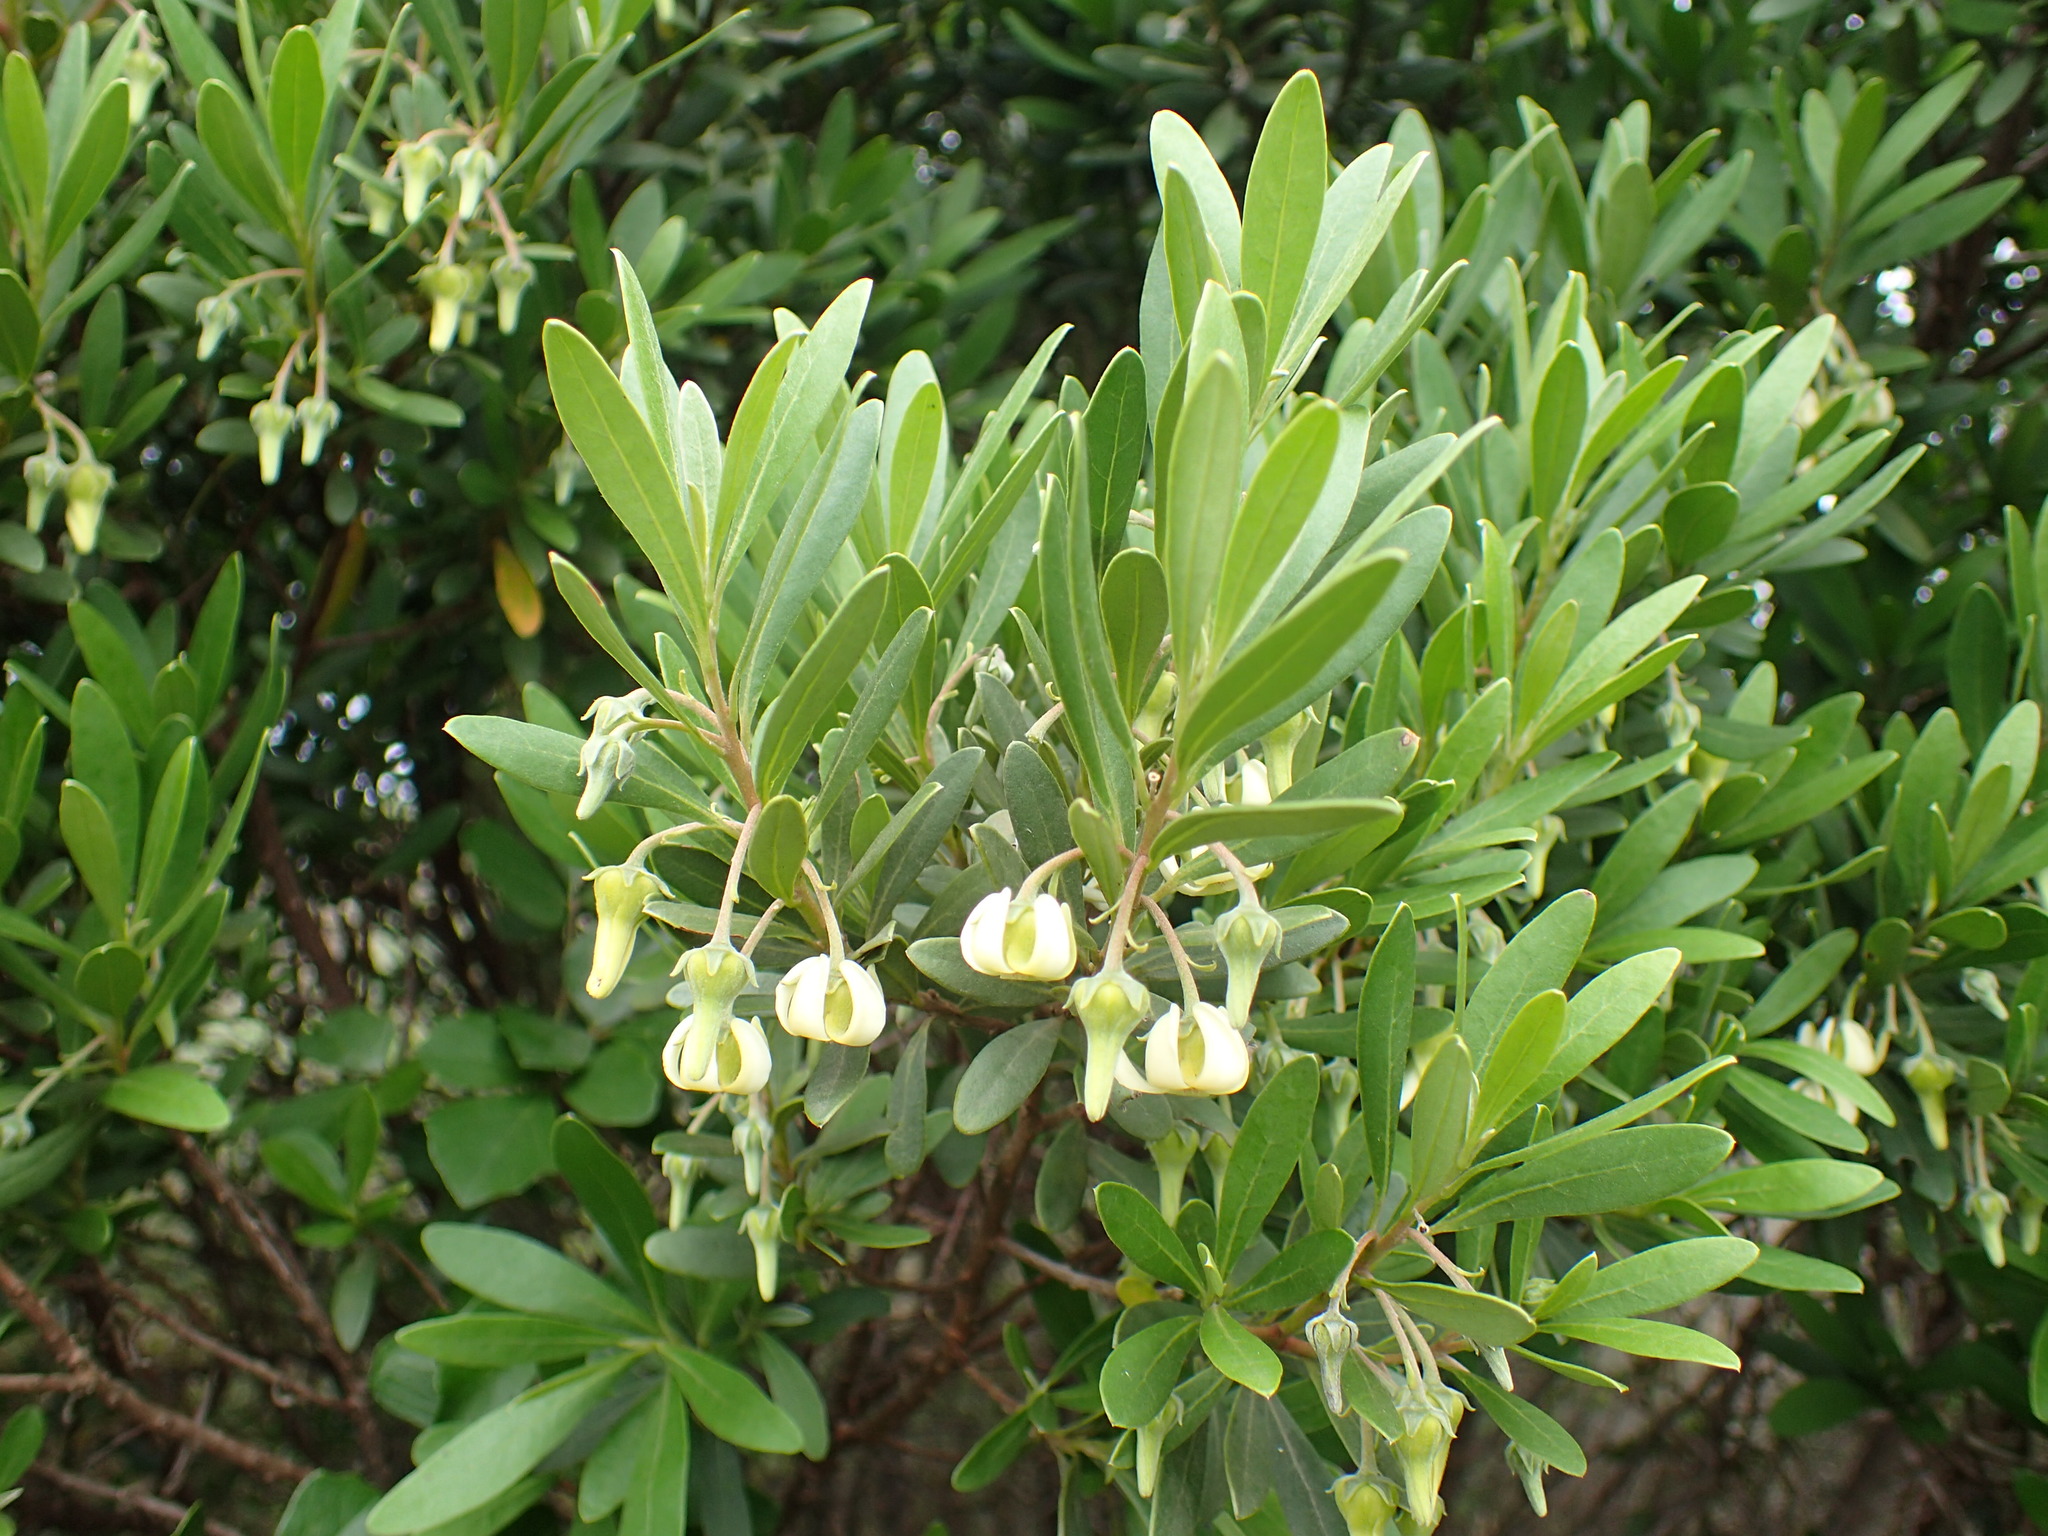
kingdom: Plantae
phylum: Tracheophyta
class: Magnoliopsida
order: Ericales
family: Ebenaceae
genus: Diospyros
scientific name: Diospyros dichrophylla
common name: Common star-apple
